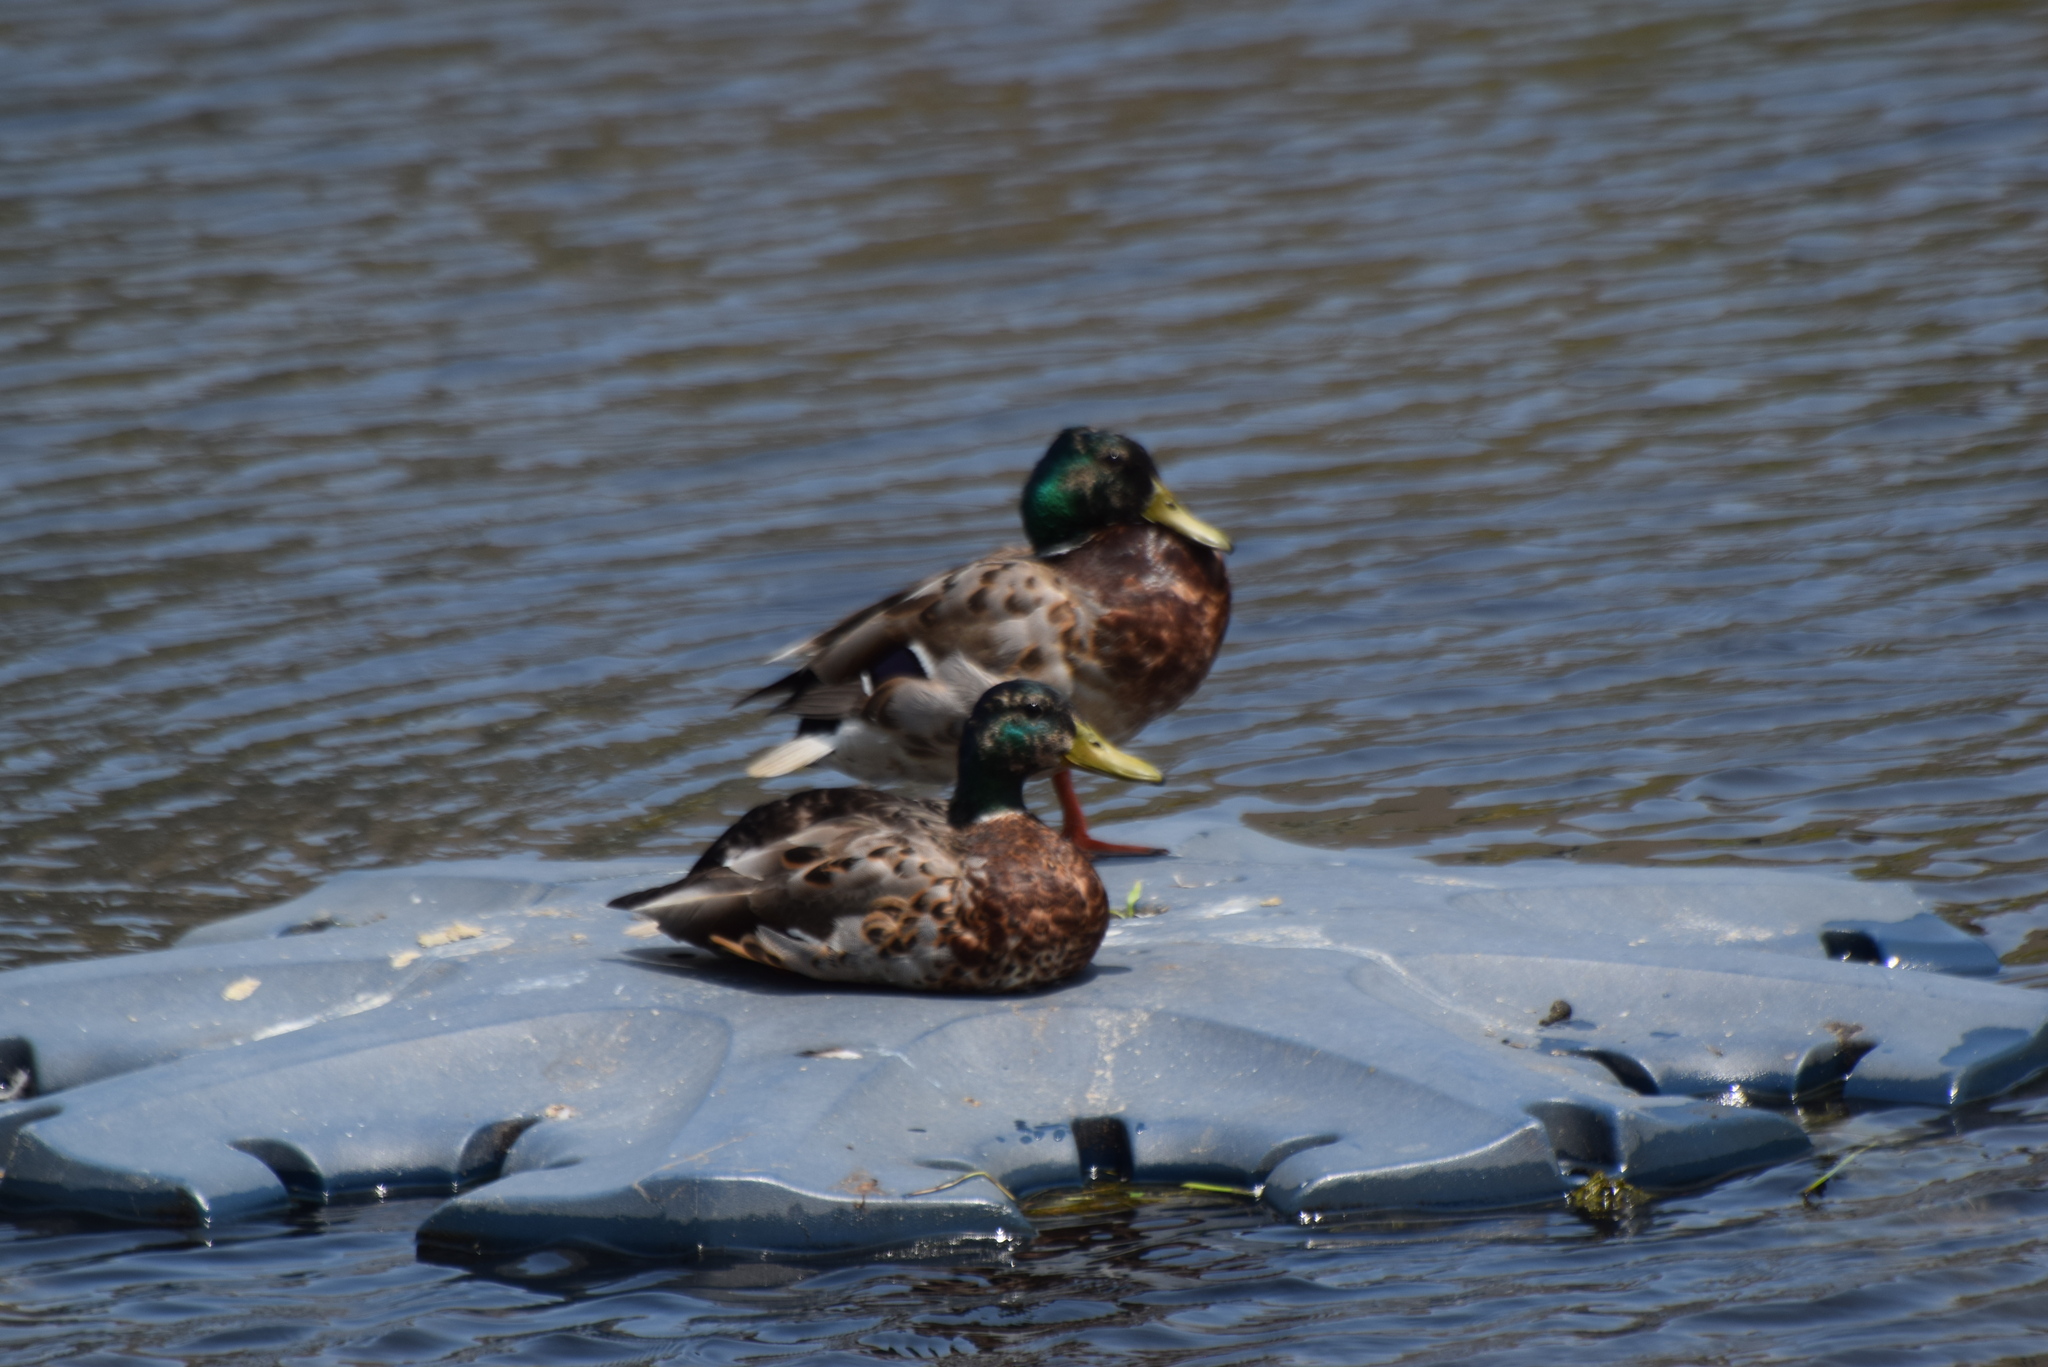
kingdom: Animalia
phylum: Chordata
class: Aves
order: Anseriformes
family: Anatidae
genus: Anas
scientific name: Anas platyrhynchos
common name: Mallard
